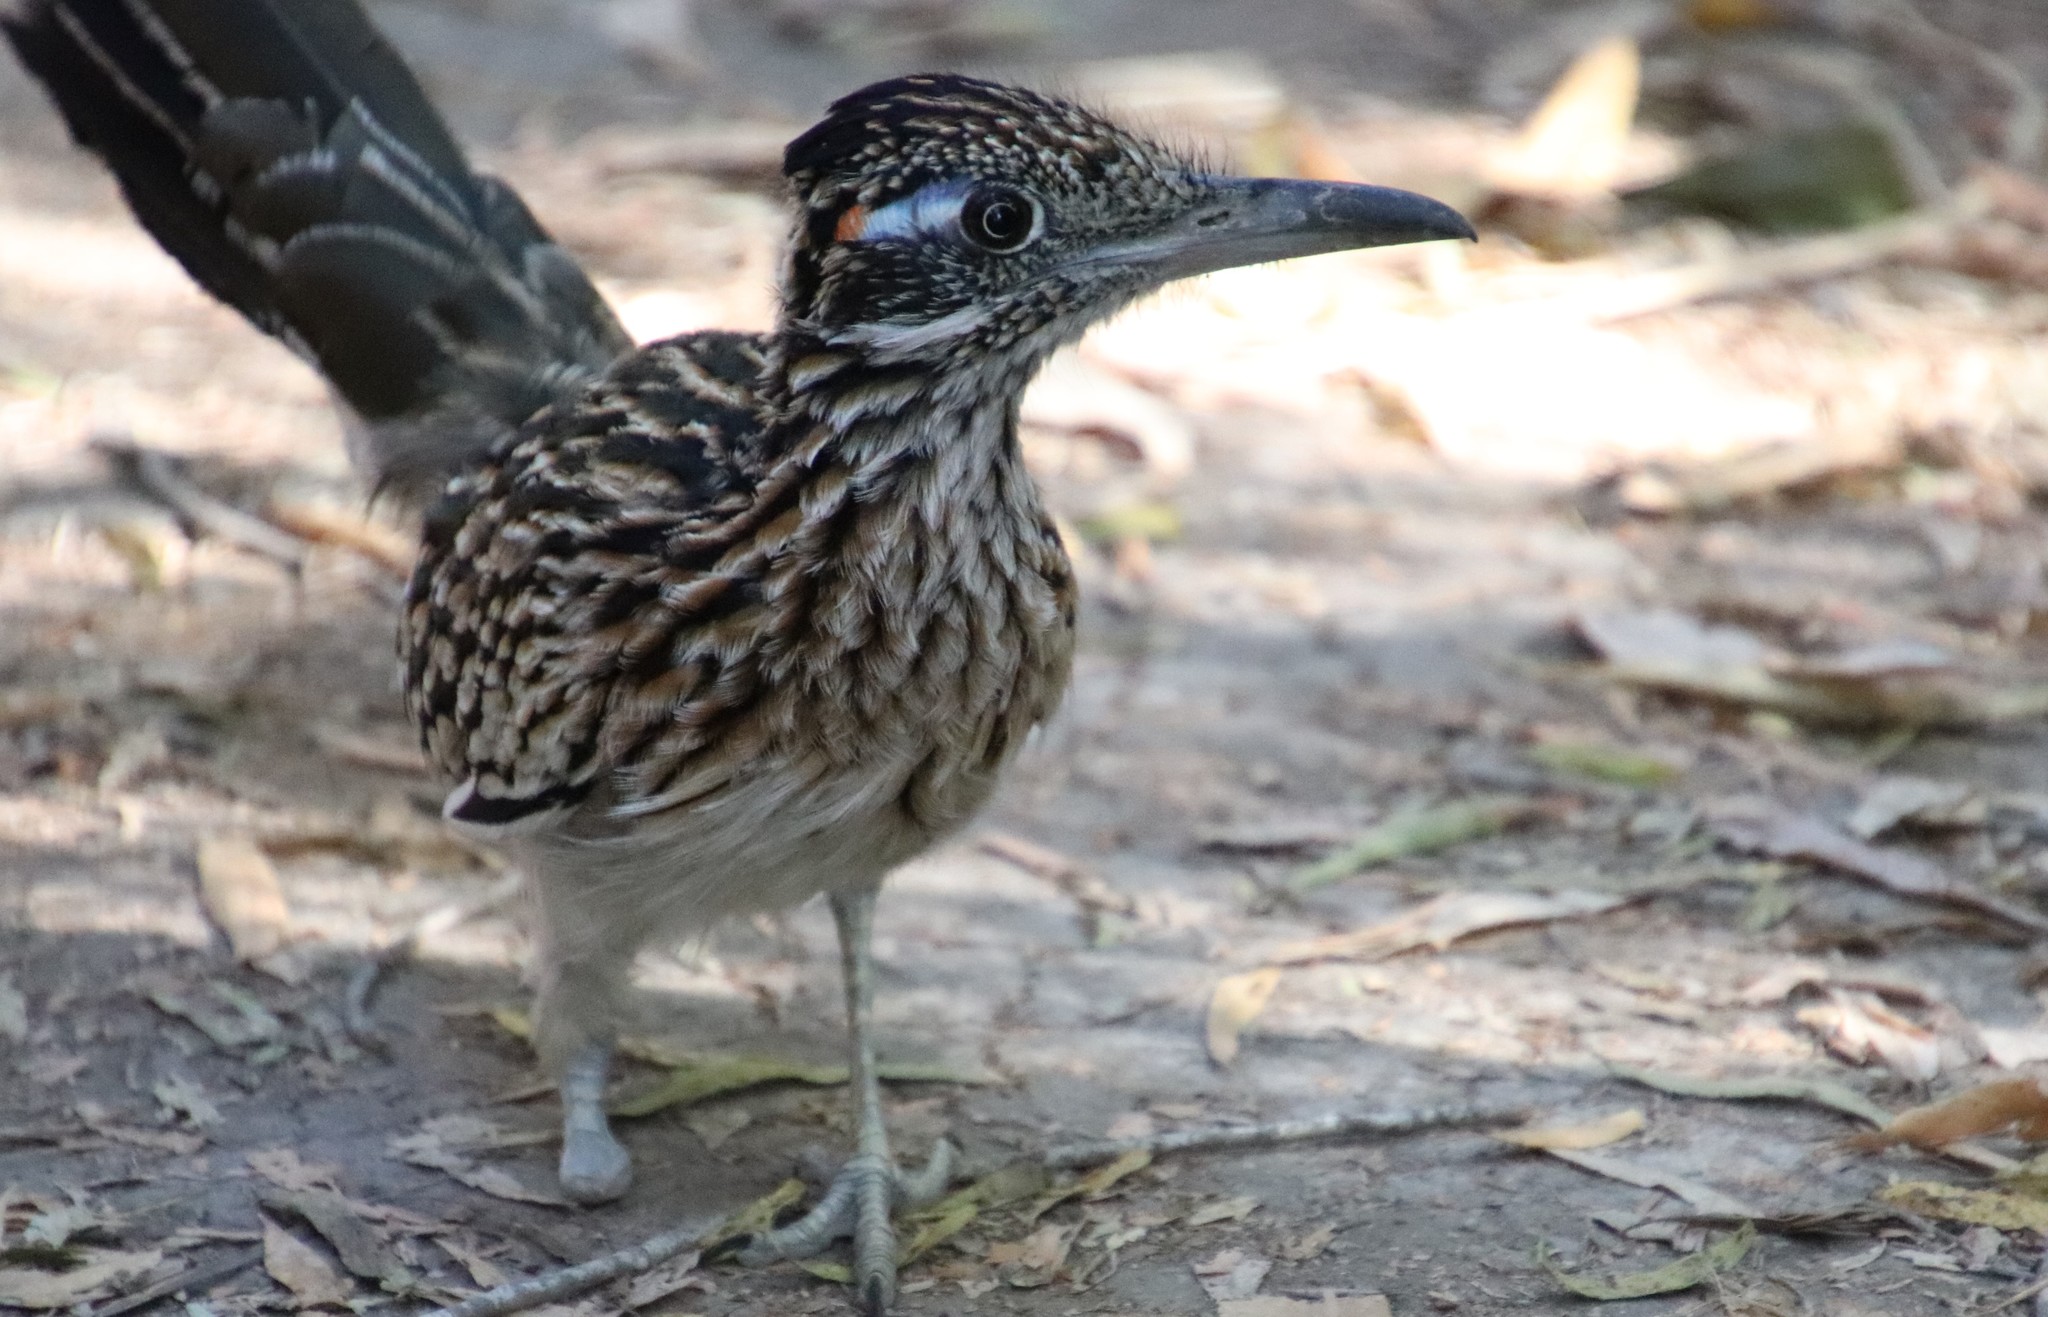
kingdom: Animalia
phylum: Chordata
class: Aves
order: Cuculiformes
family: Cuculidae
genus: Geococcyx
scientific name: Geococcyx californianus
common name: Greater roadrunner
